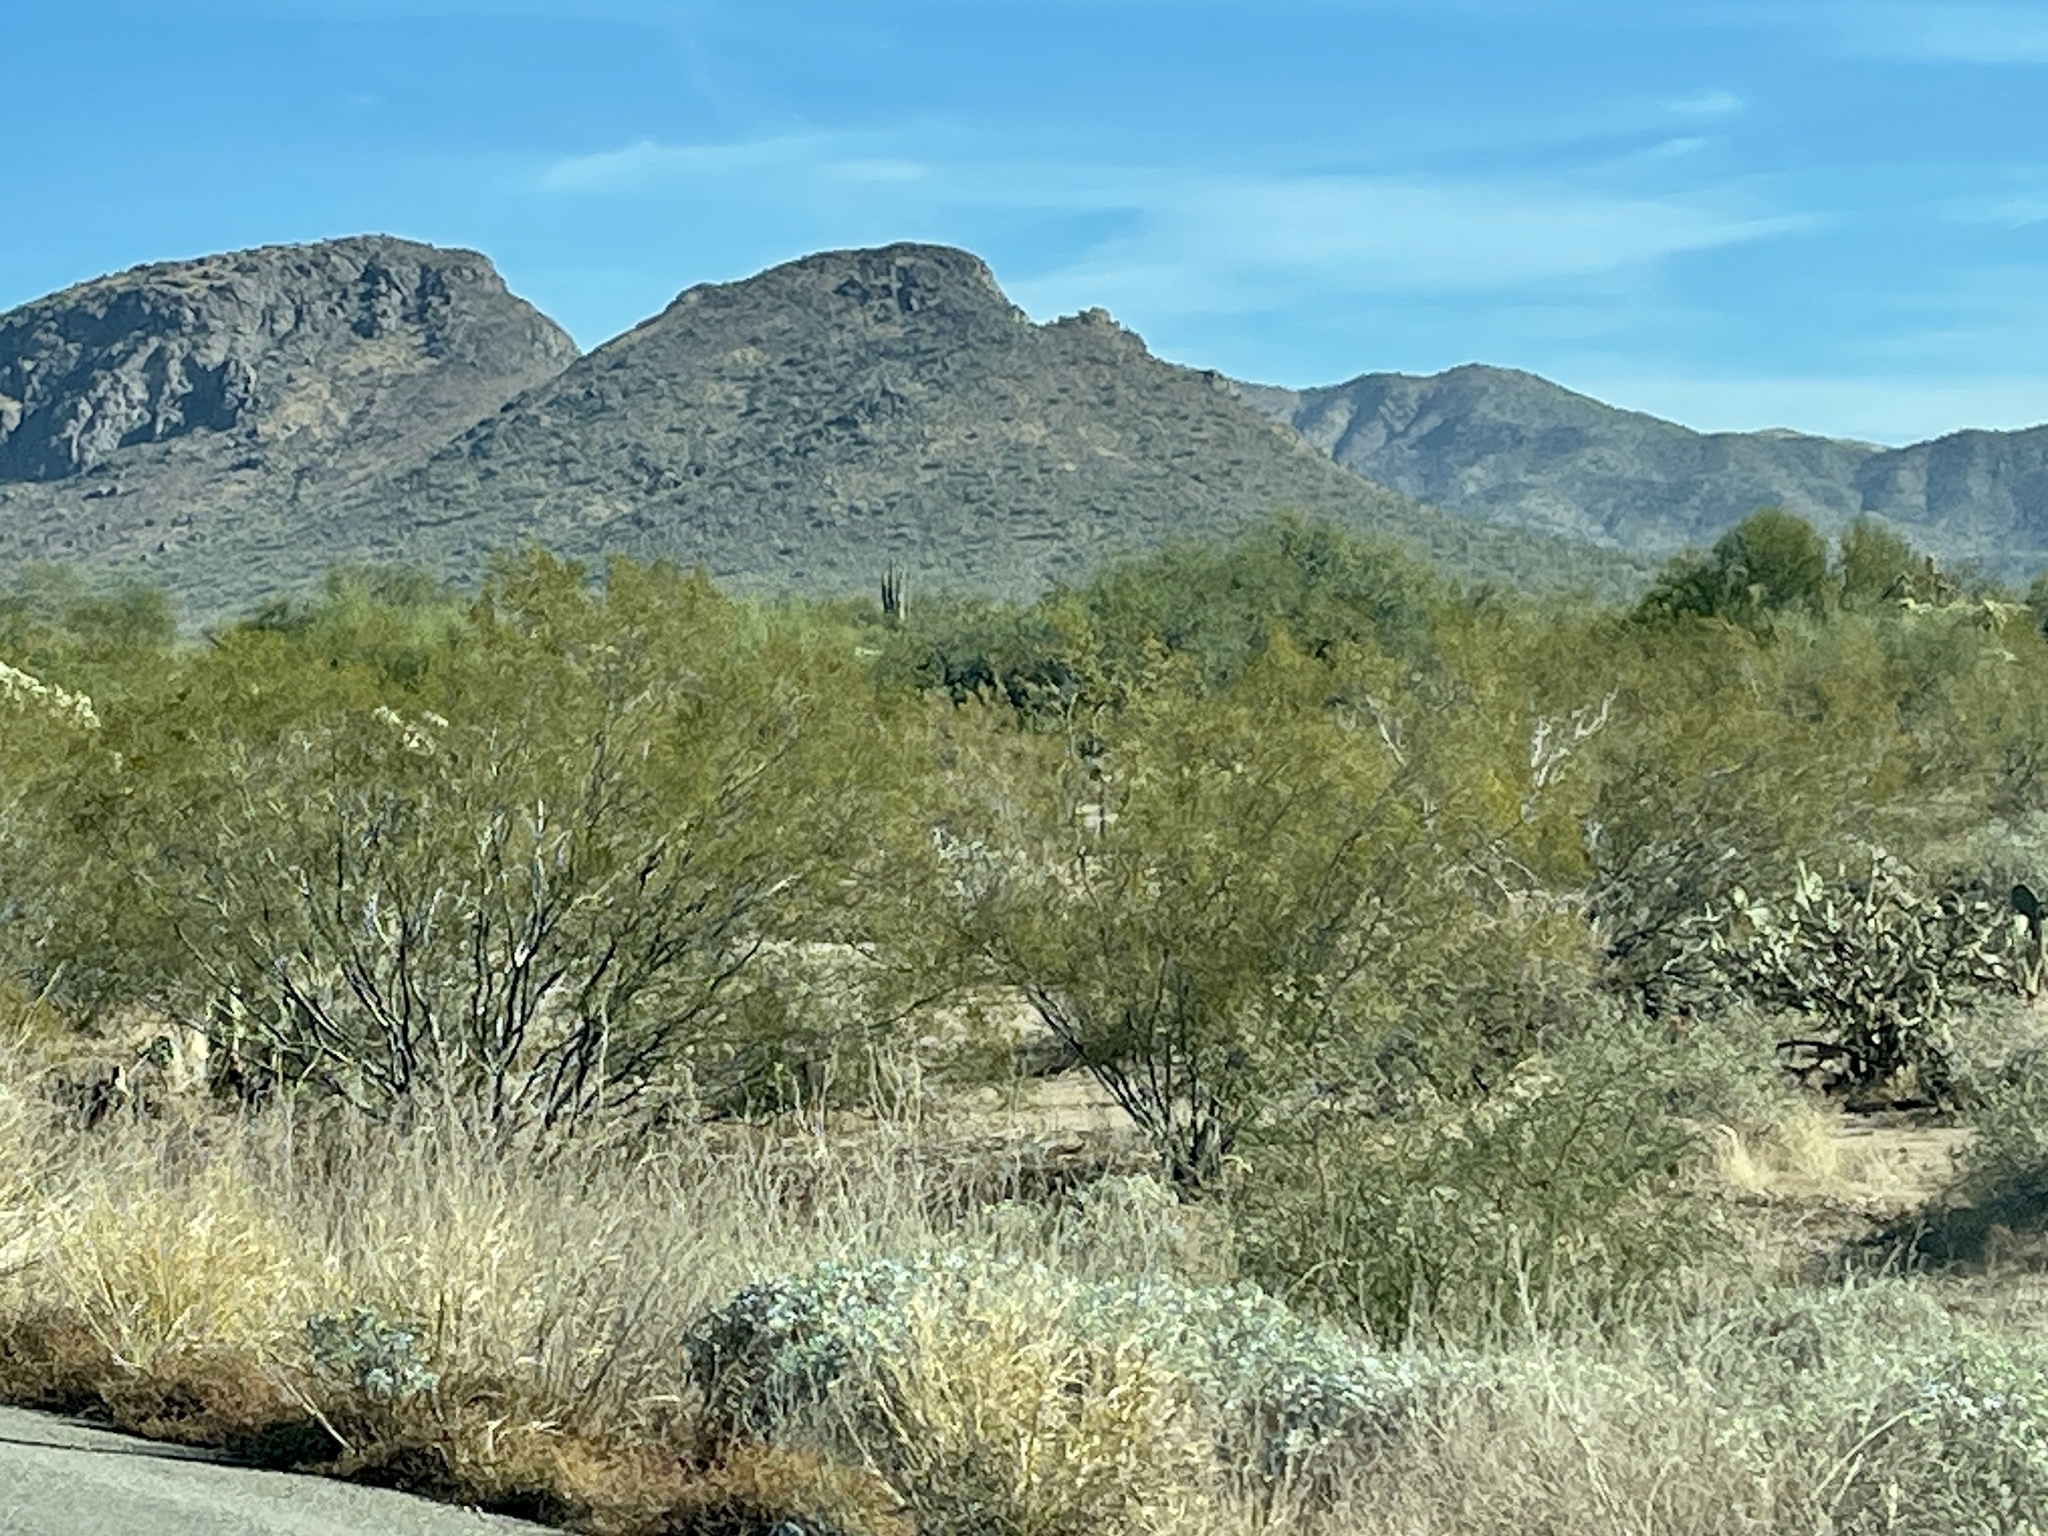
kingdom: Plantae
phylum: Tracheophyta
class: Magnoliopsida
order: Zygophyllales
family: Zygophyllaceae
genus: Larrea
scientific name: Larrea tridentata
